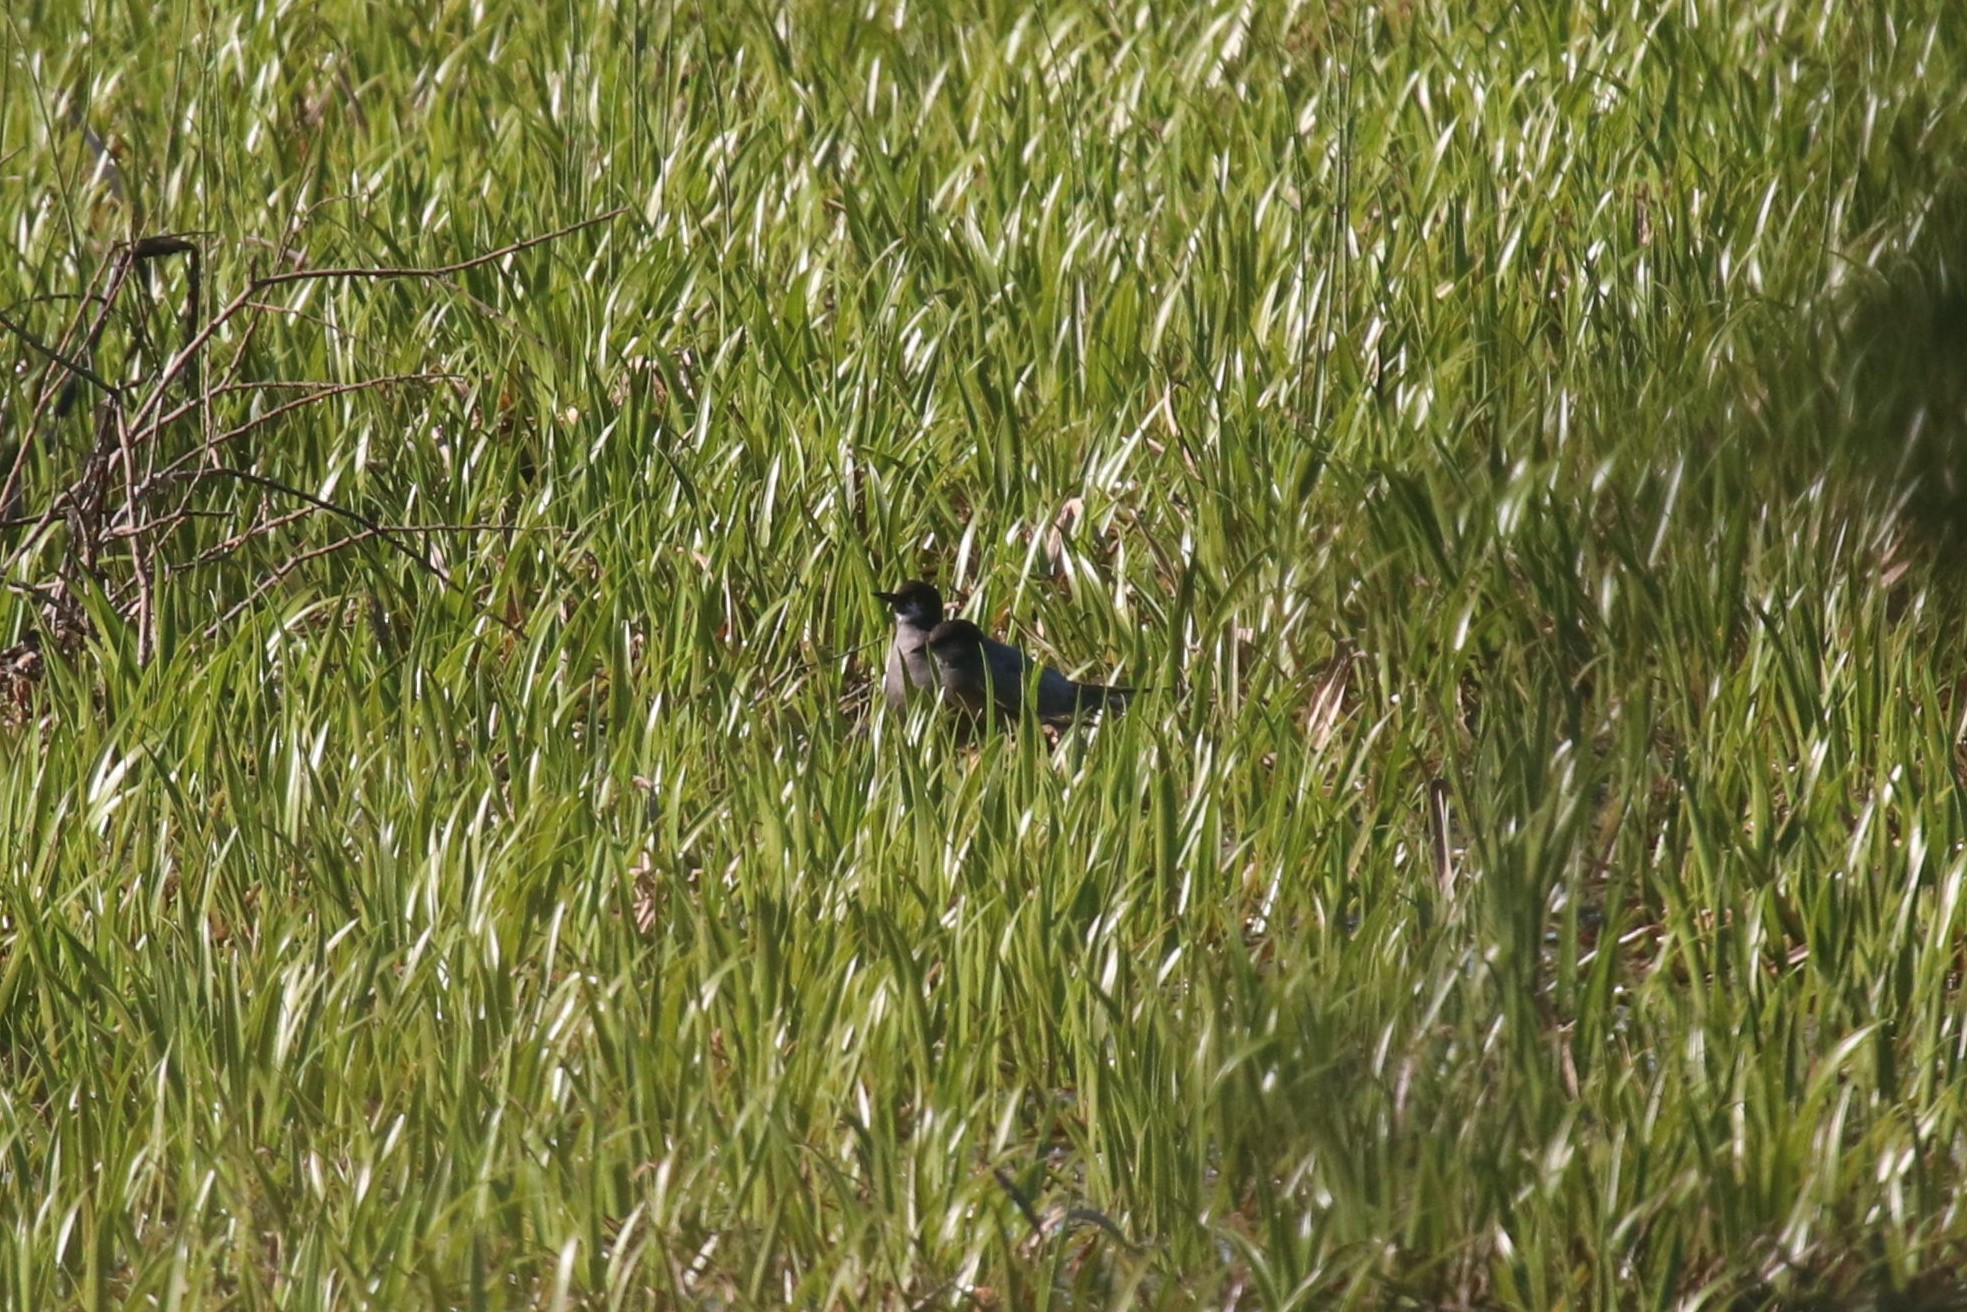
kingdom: Animalia
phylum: Chordata
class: Aves
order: Charadriiformes
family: Laridae
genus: Chlidonias
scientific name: Chlidonias niger
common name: Black tern
